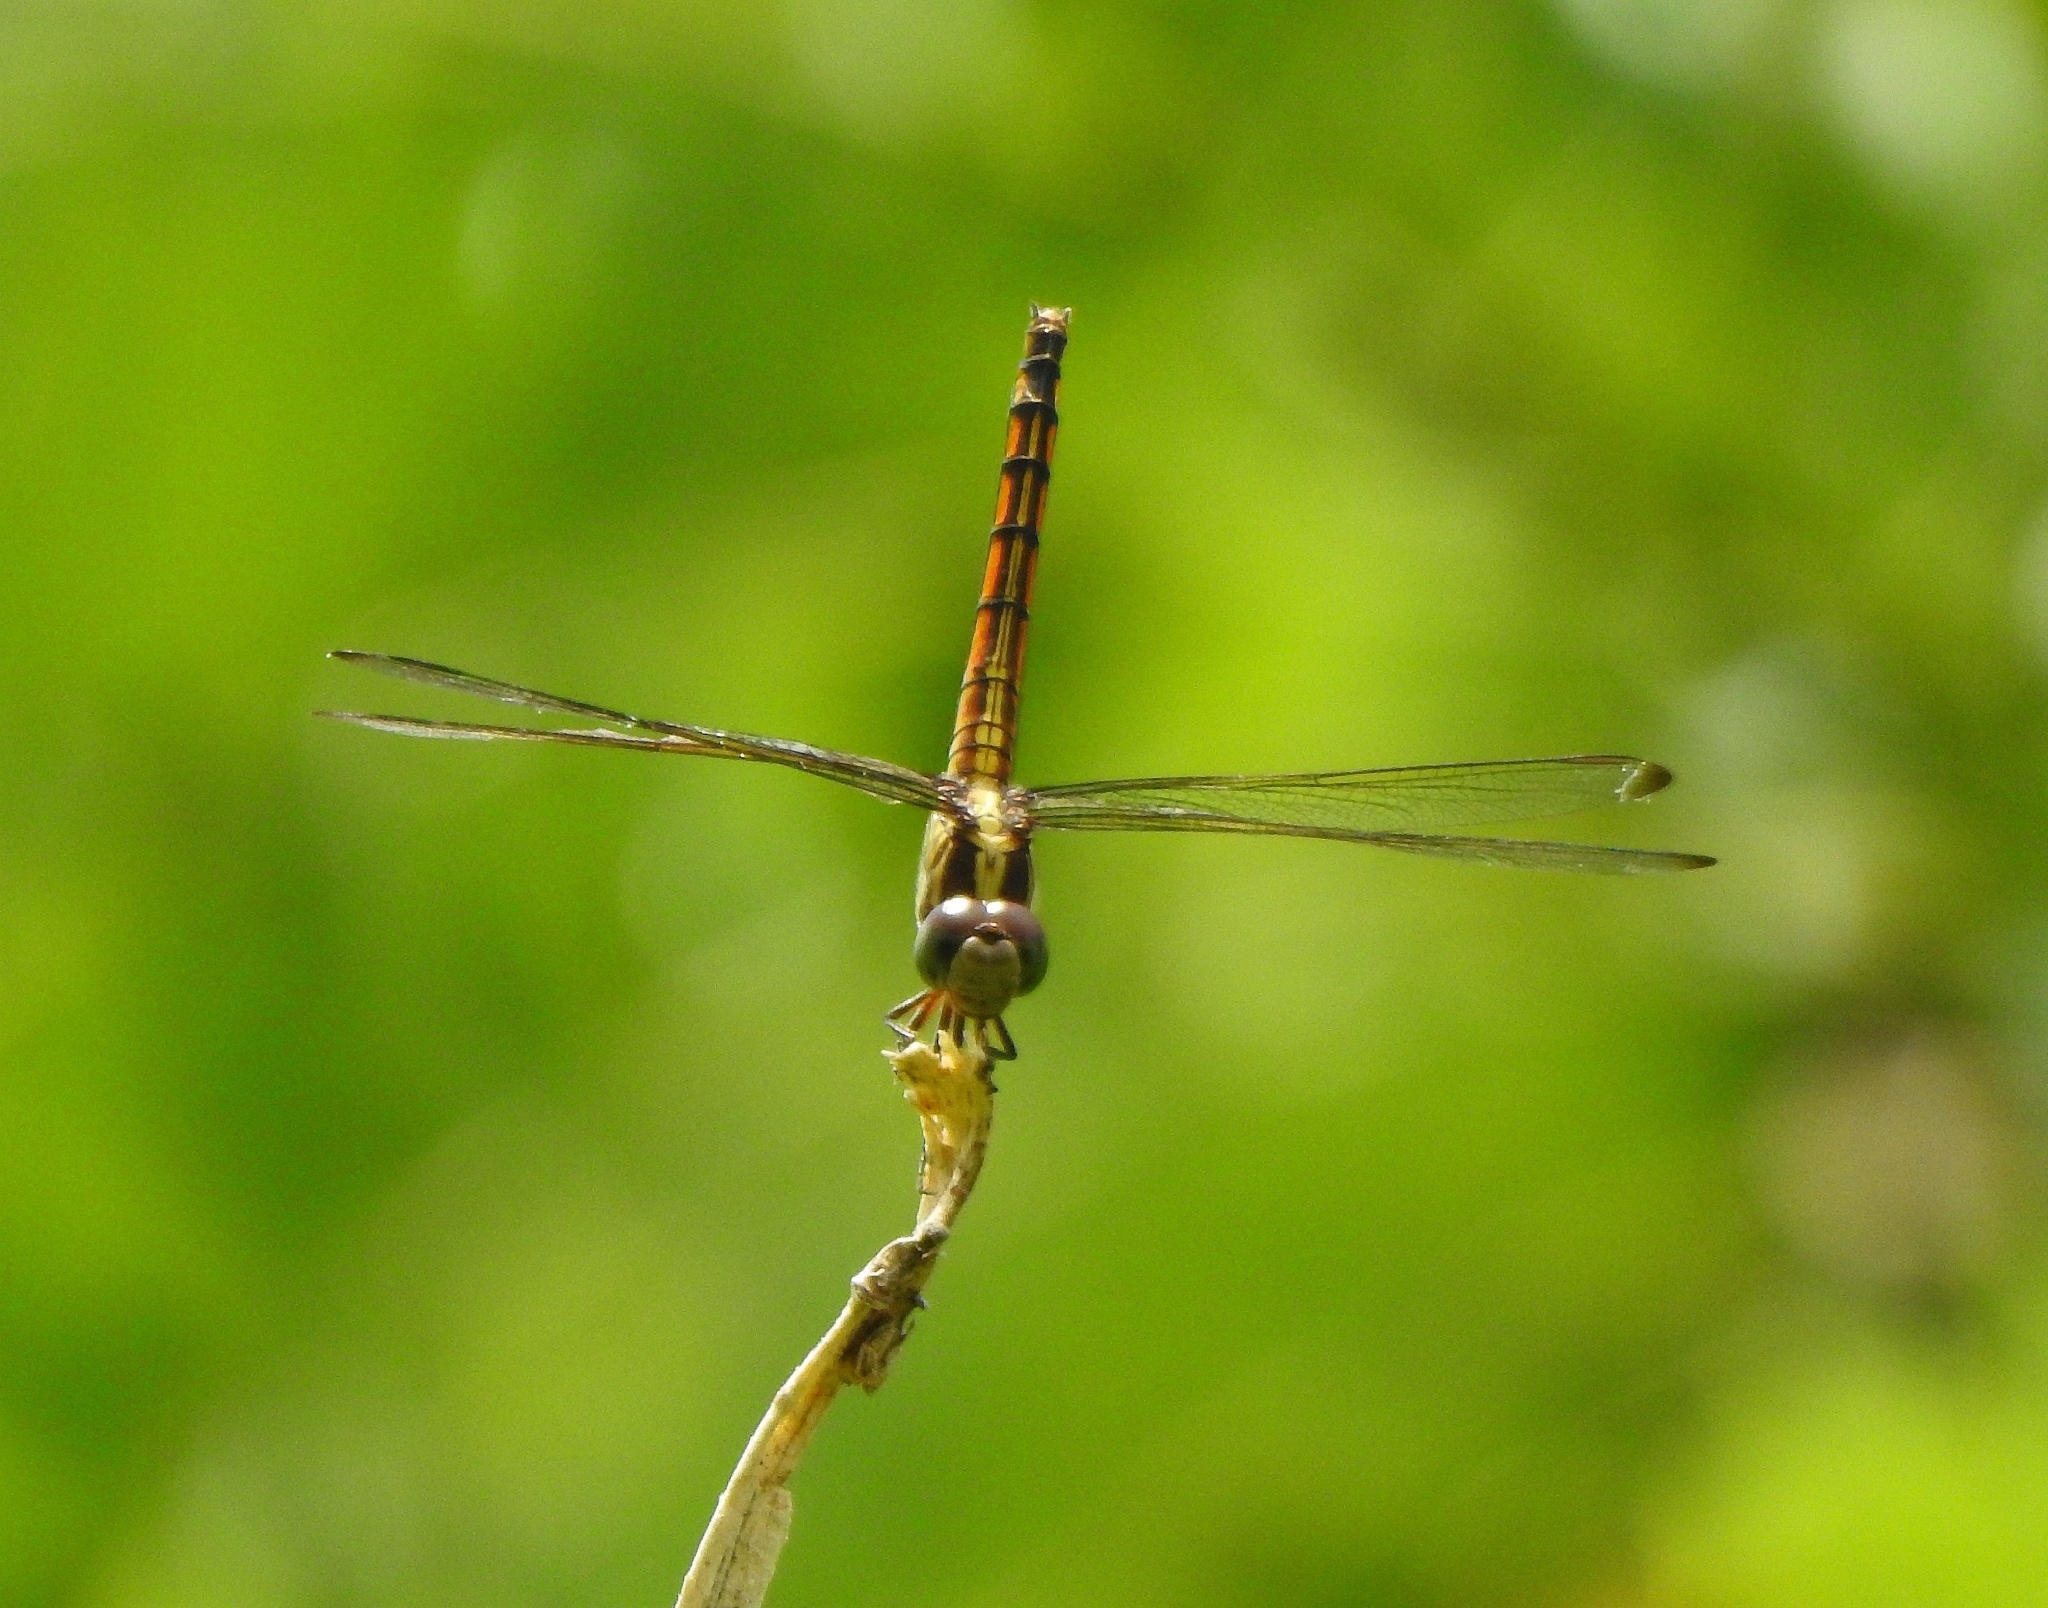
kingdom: Animalia
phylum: Arthropoda
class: Insecta
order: Odonata
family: Libellulidae
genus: Potamarcha
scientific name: Potamarcha congener
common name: Blue chaser
